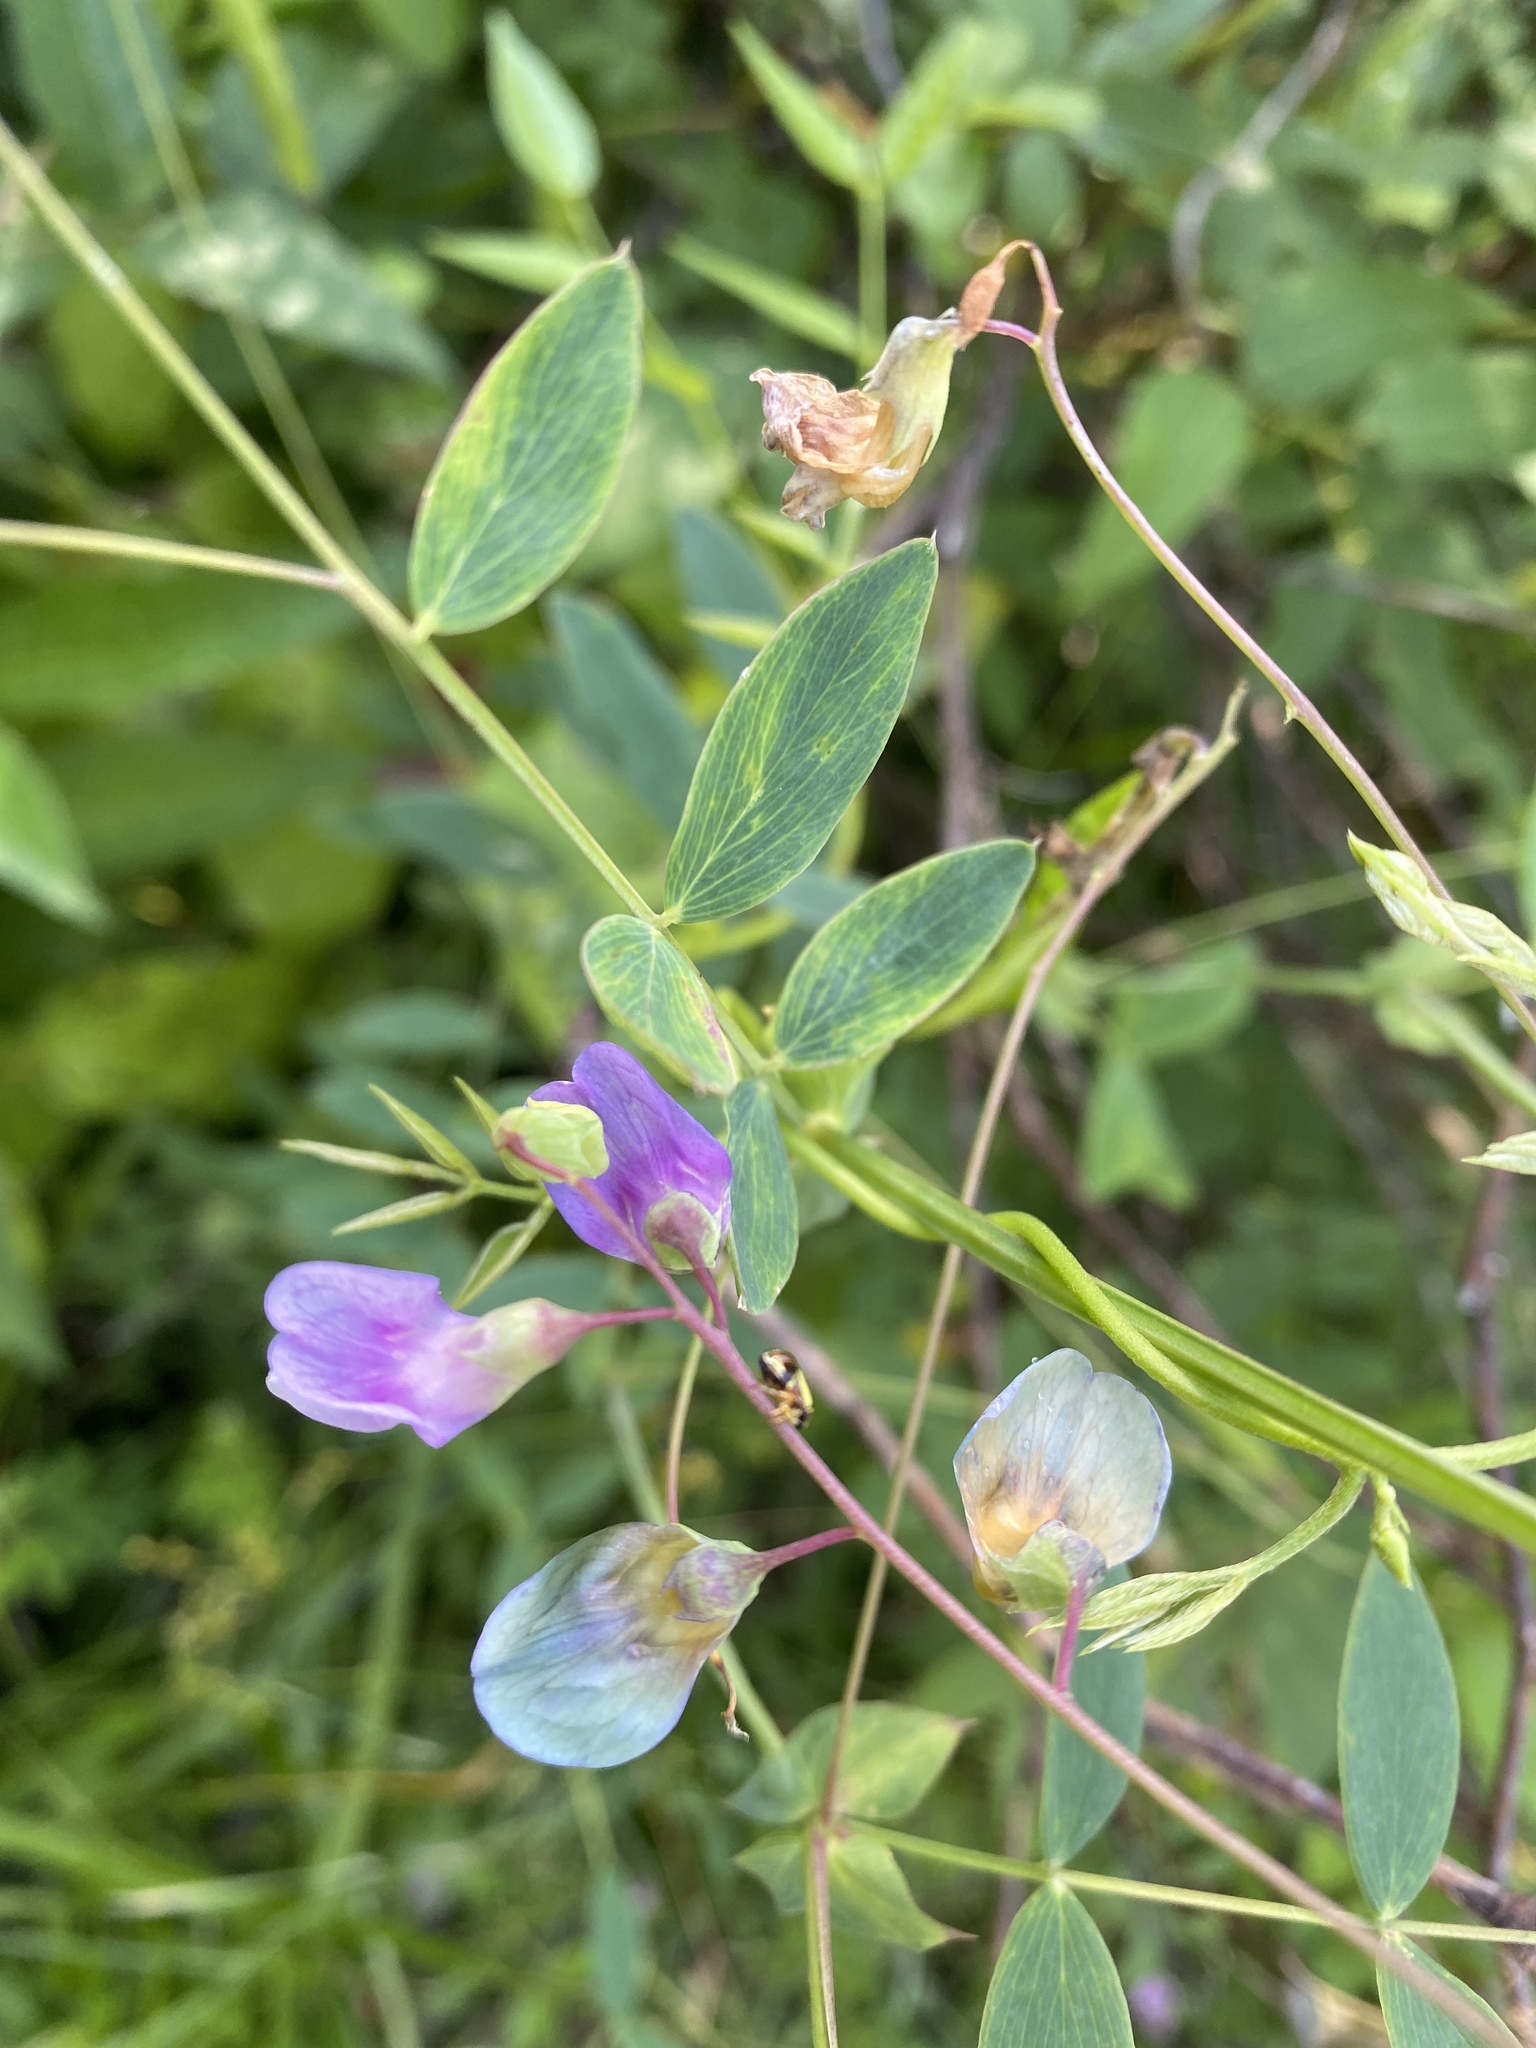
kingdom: Plantae
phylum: Tracheophyta
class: Magnoliopsida
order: Fabales
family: Fabaceae
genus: Lathyrus
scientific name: Lathyrus palustris
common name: Marsh pea
